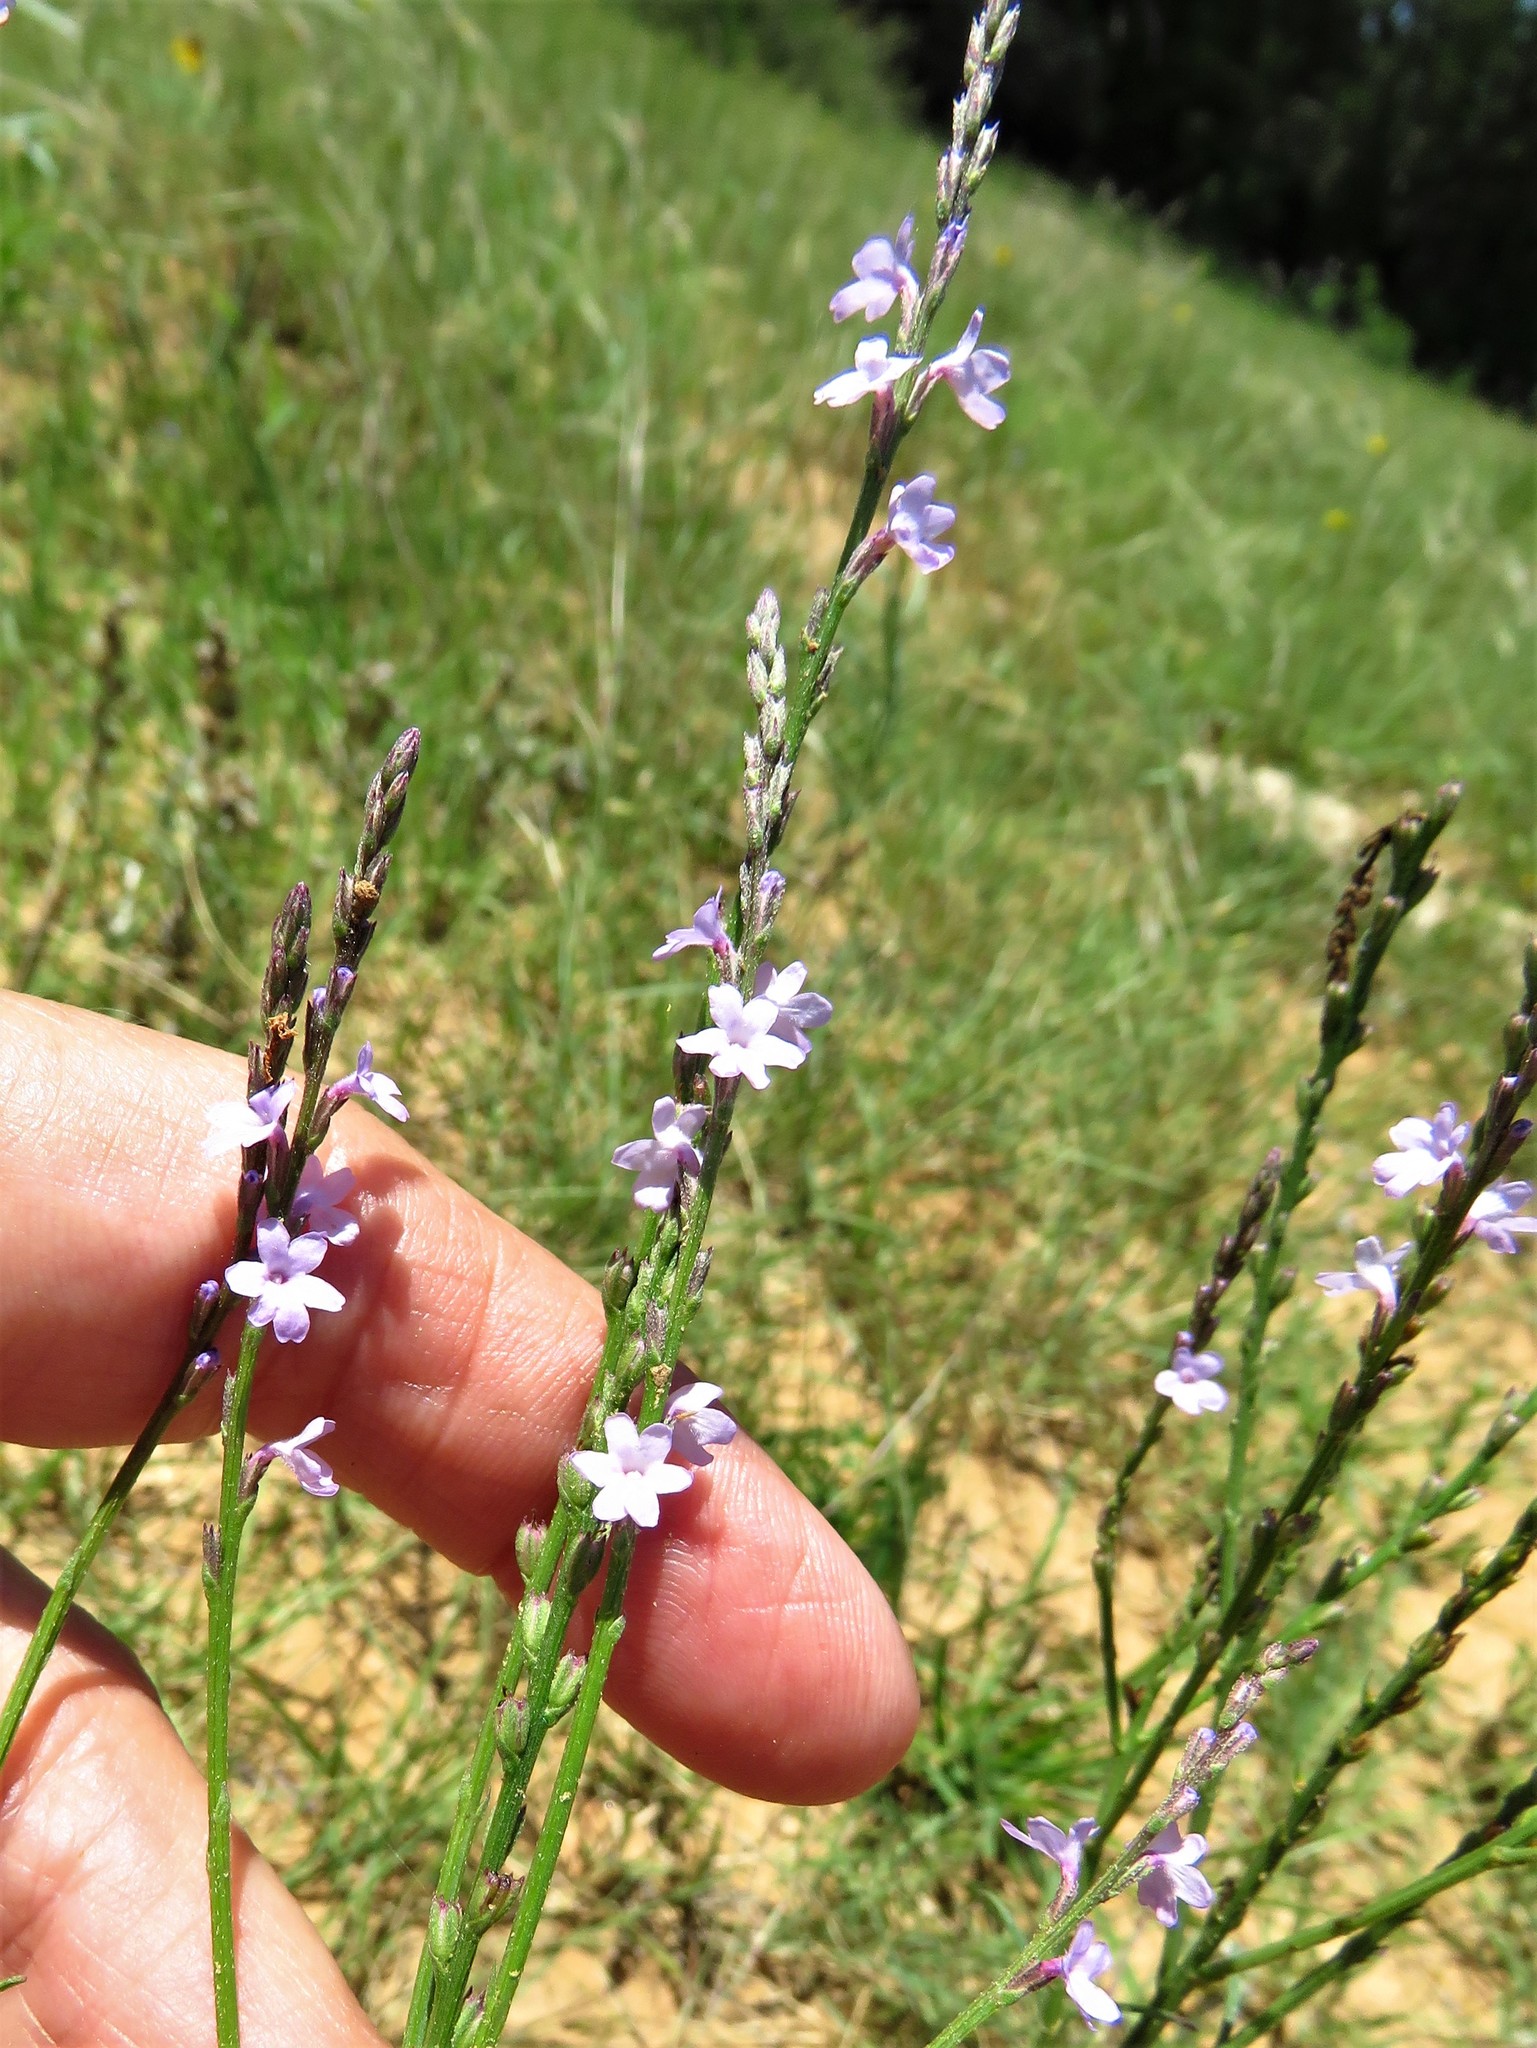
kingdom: Plantae
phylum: Tracheophyta
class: Magnoliopsida
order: Lamiales
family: Verbenaceae
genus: Verbena
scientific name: Verbena halei
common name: Texas vervain
